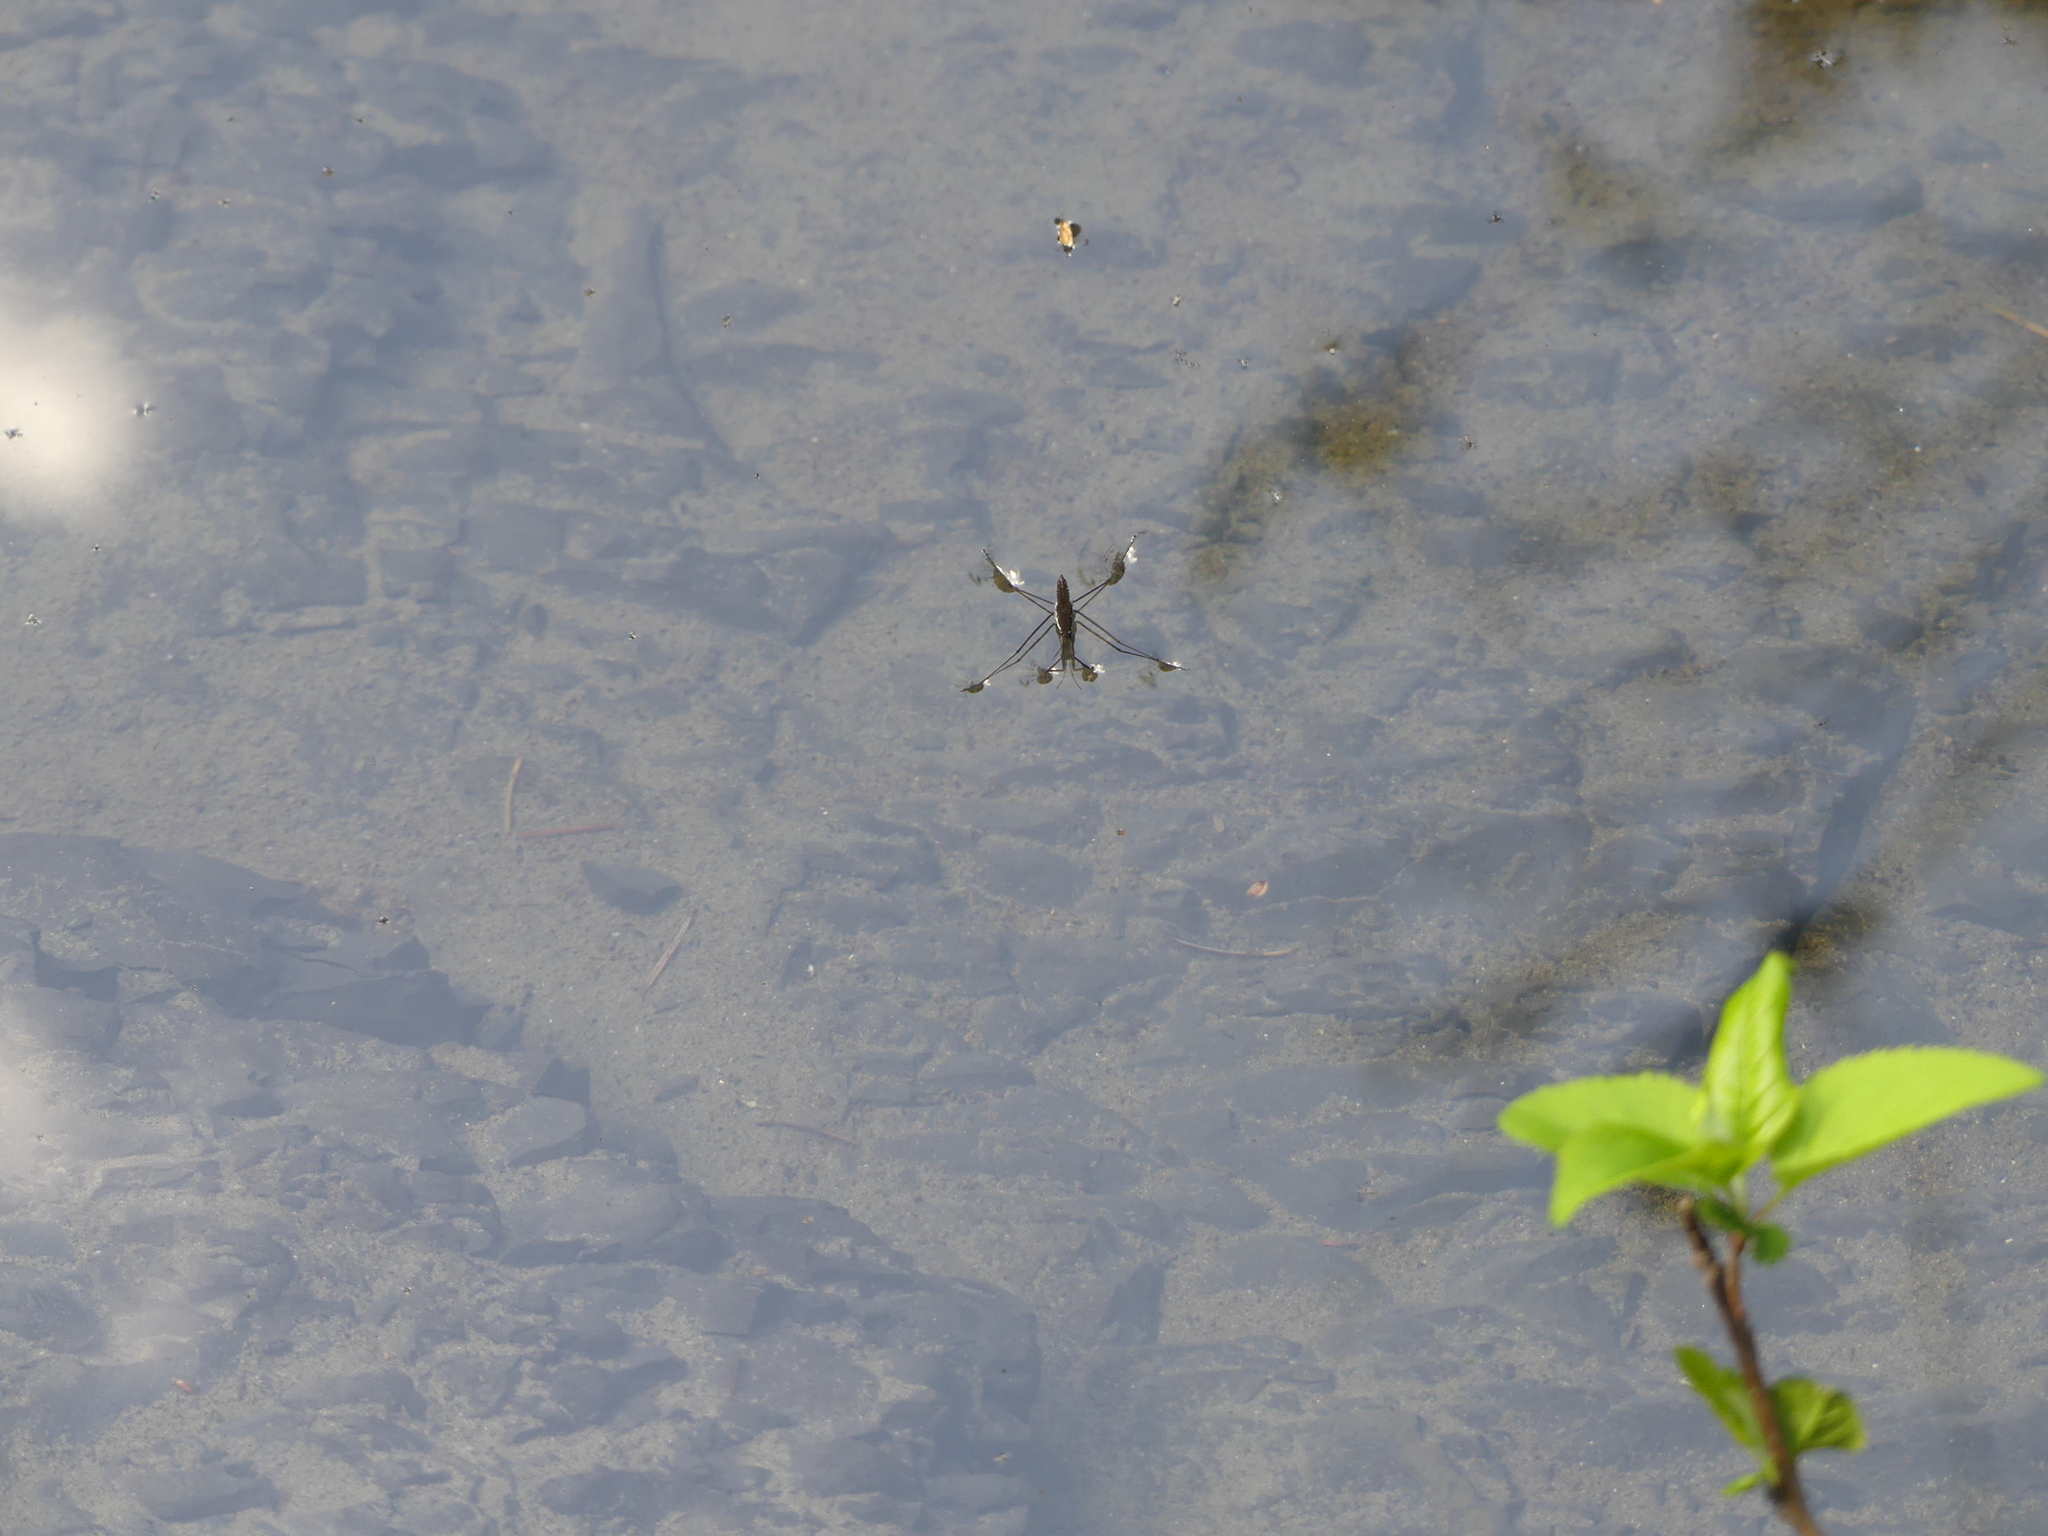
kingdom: Animalia
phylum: Arthropoda
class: Insecta
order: Hemiptera
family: Gerridae
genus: Aquarius
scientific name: Aquarius remigis
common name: Common water strider
